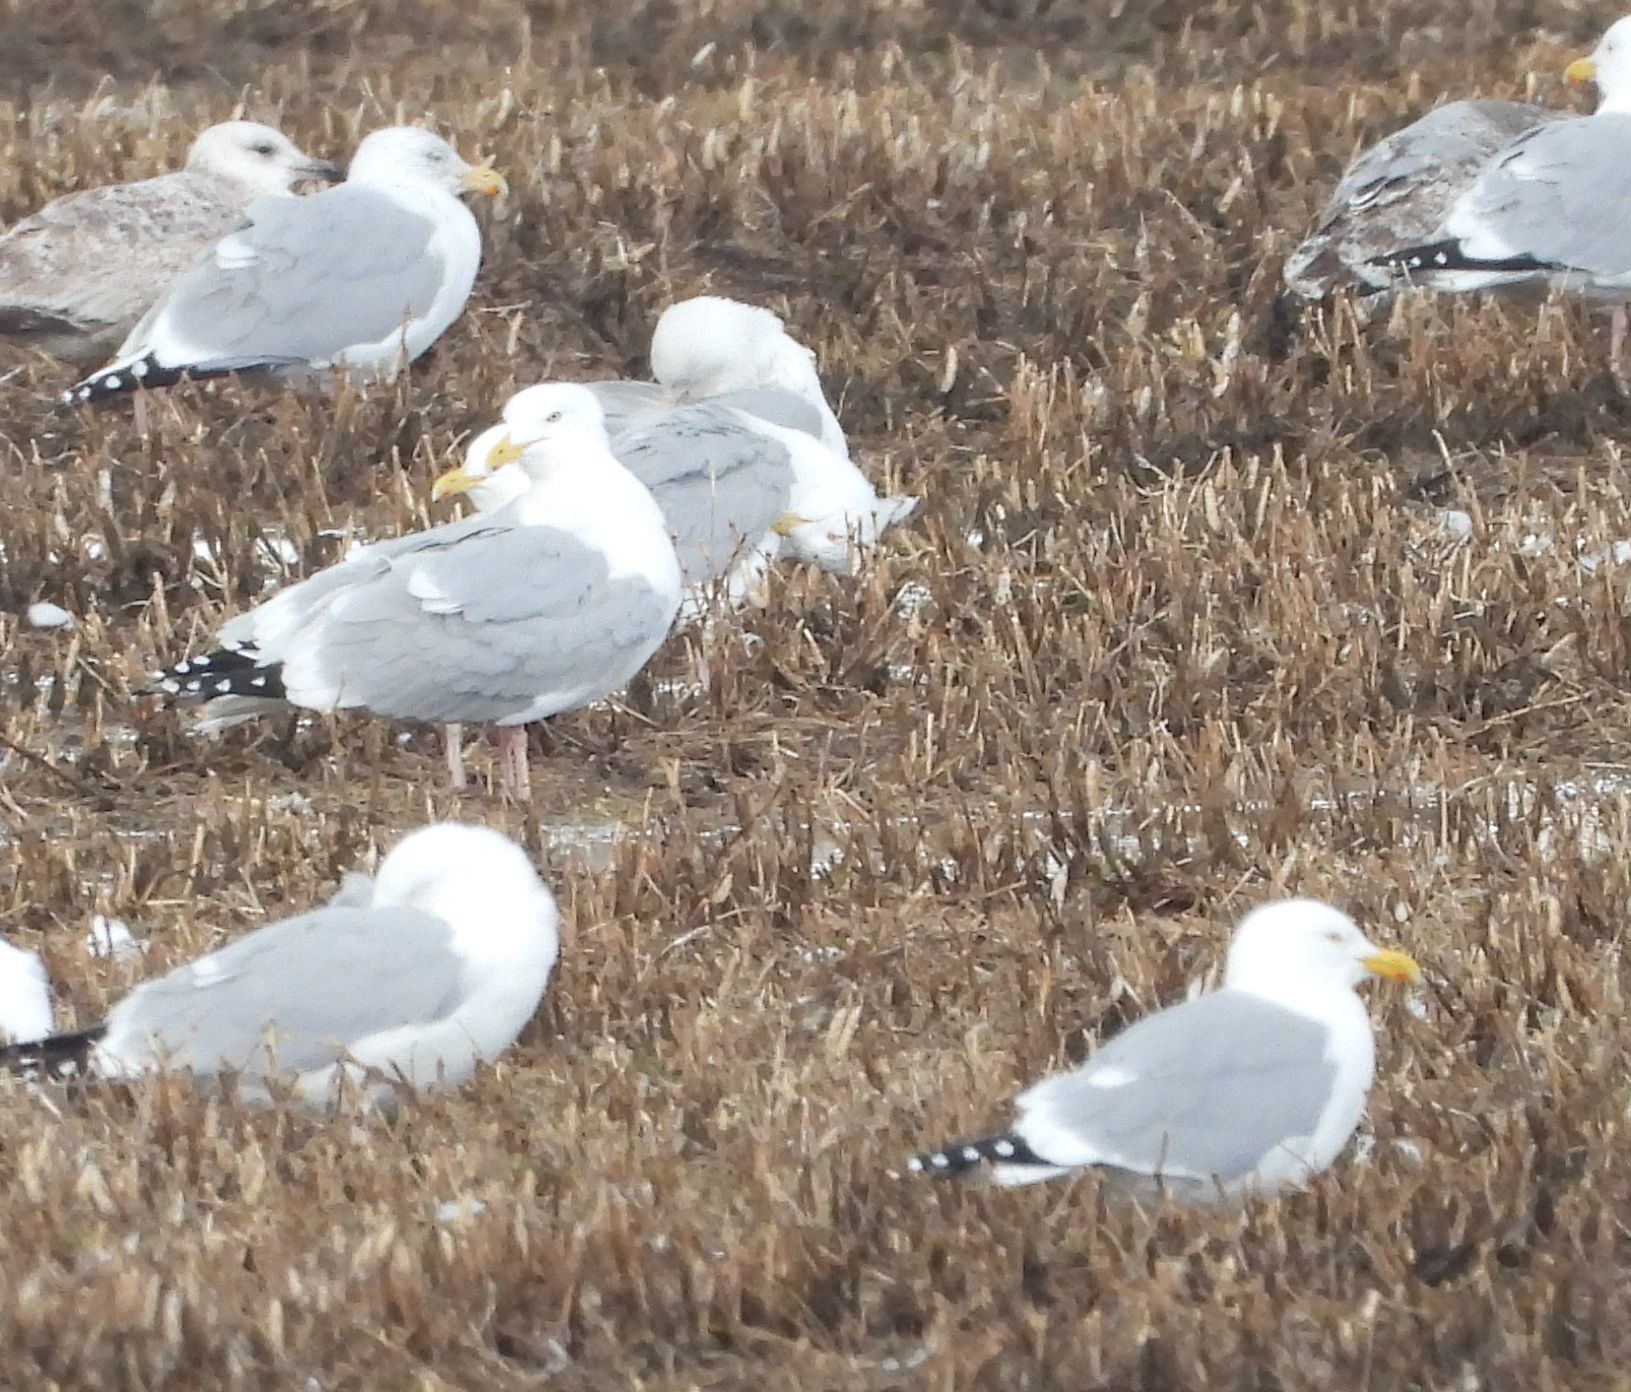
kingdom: Animalia
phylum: Chordata
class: Aves
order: Charadriiformes
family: Laridae
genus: Larus
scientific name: Larus argentatus
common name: Herring gull
